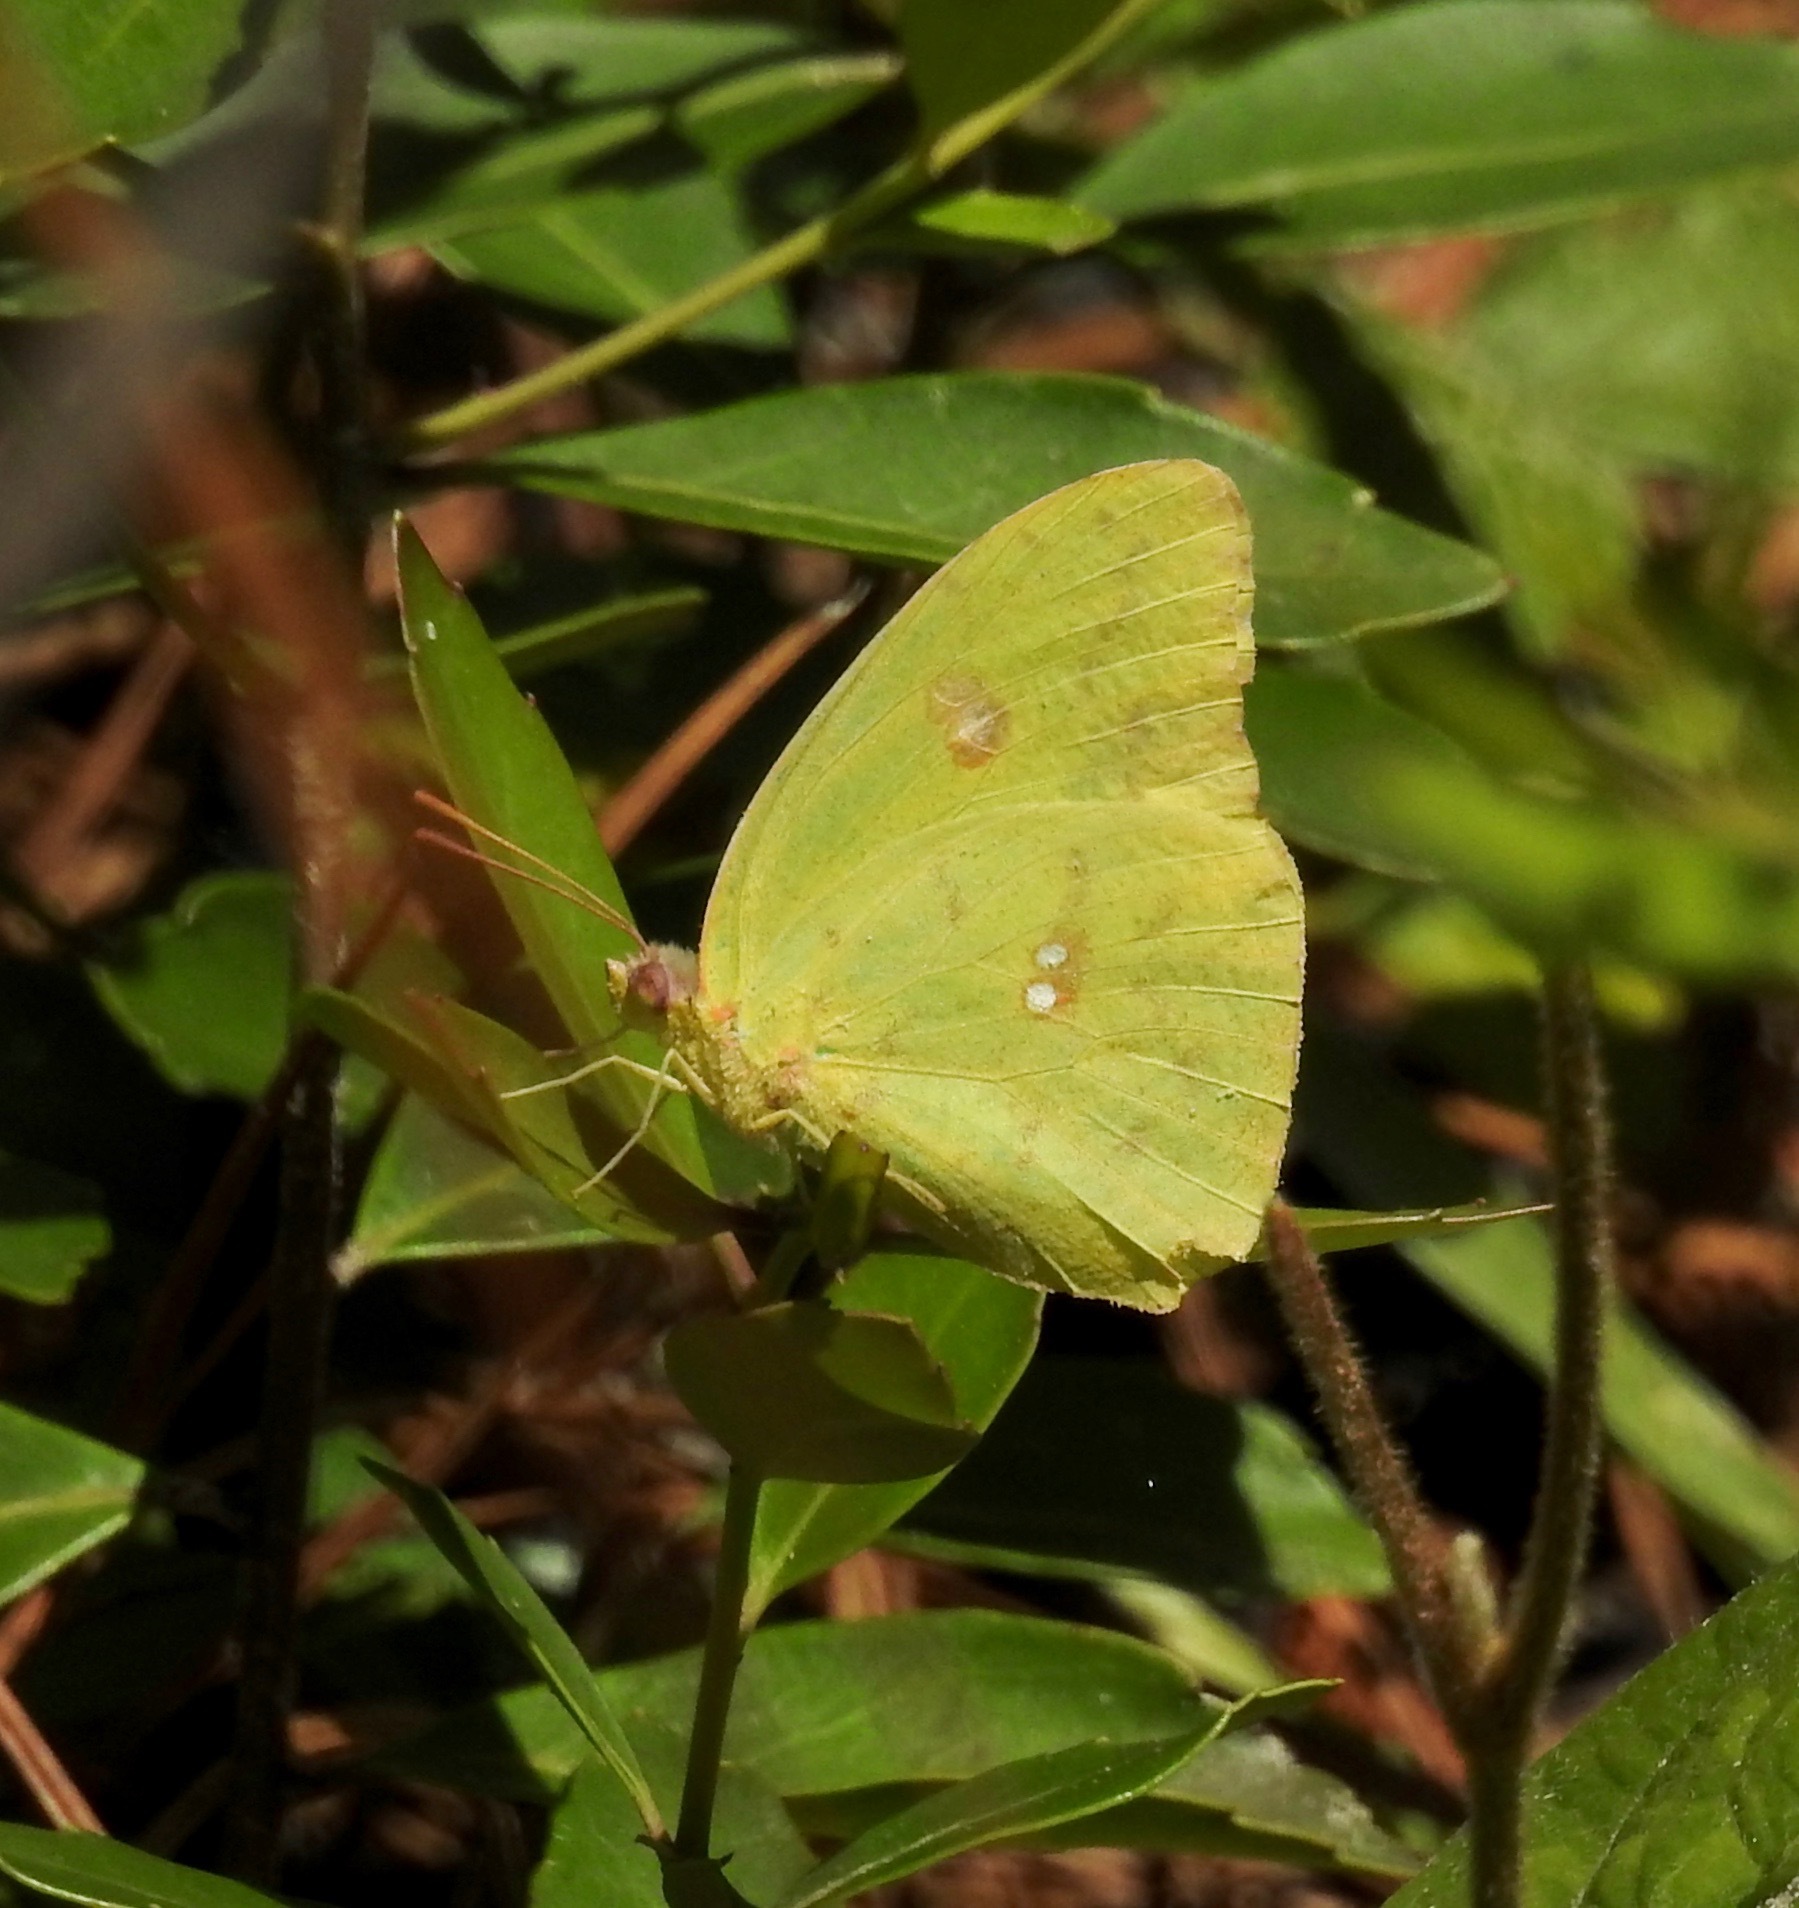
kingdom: Animalia
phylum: Arthropoda
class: Insecta
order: Lepidoptera
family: Pieridae
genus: Phoebis
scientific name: Phoebis sennae
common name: Cloudless sulphur
